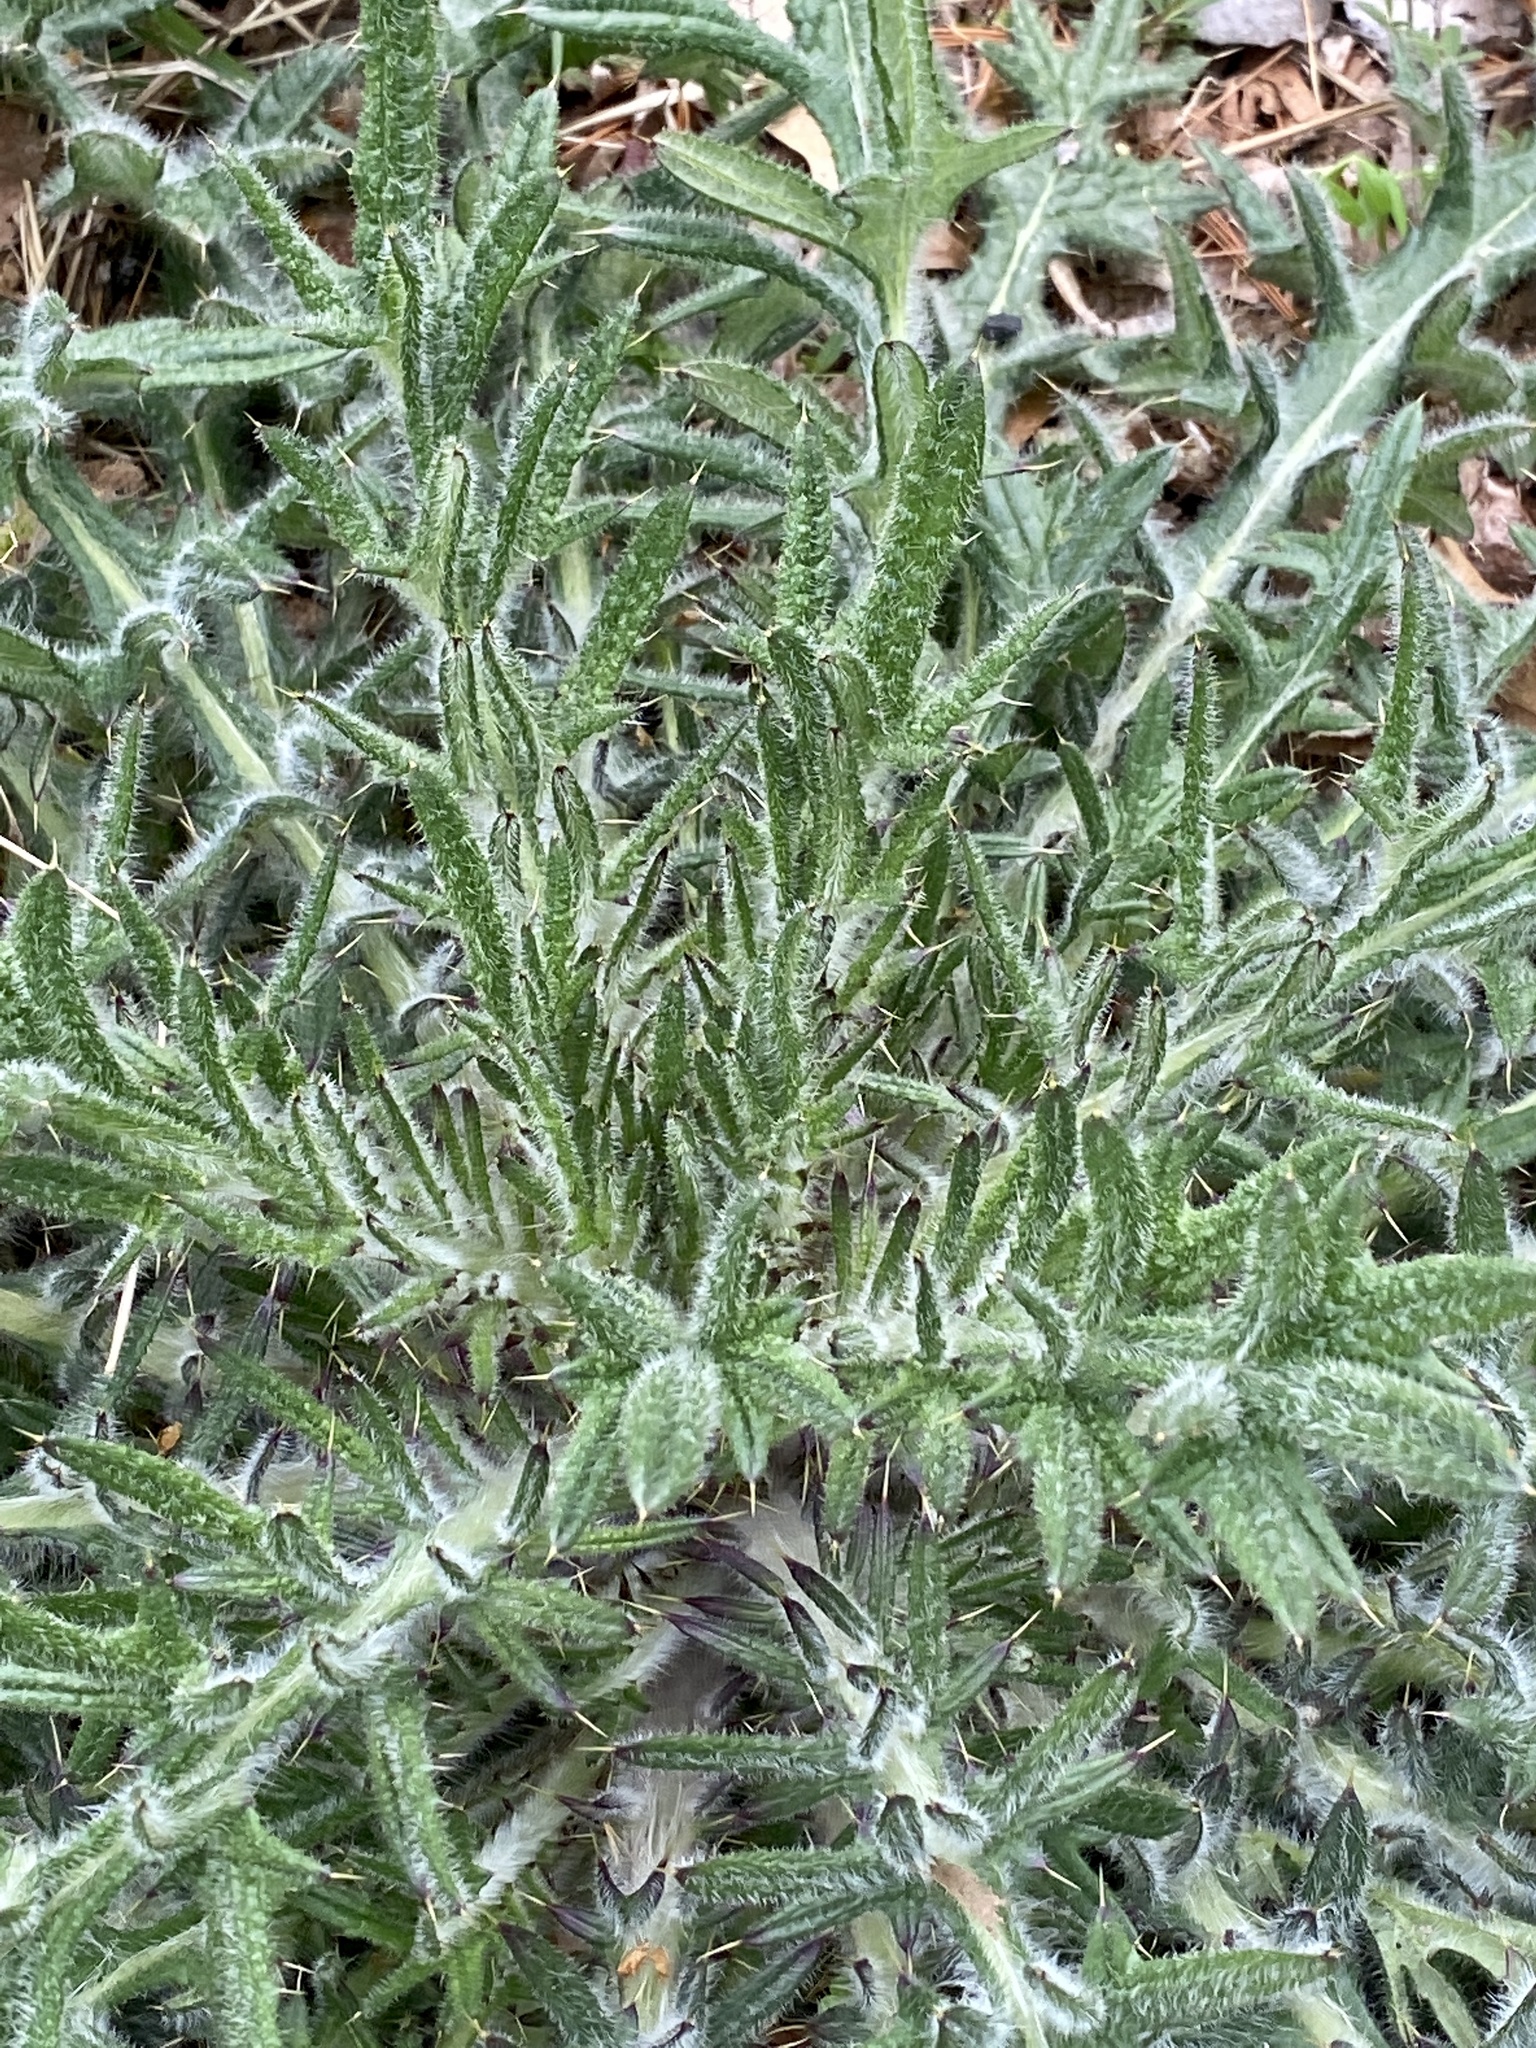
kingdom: Plantae
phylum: Tracheophyta
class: Magnoliopsida
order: Asterales
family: Asteraceae
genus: Cirsium
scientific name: Cirsium vulgare
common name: Bull thistle
